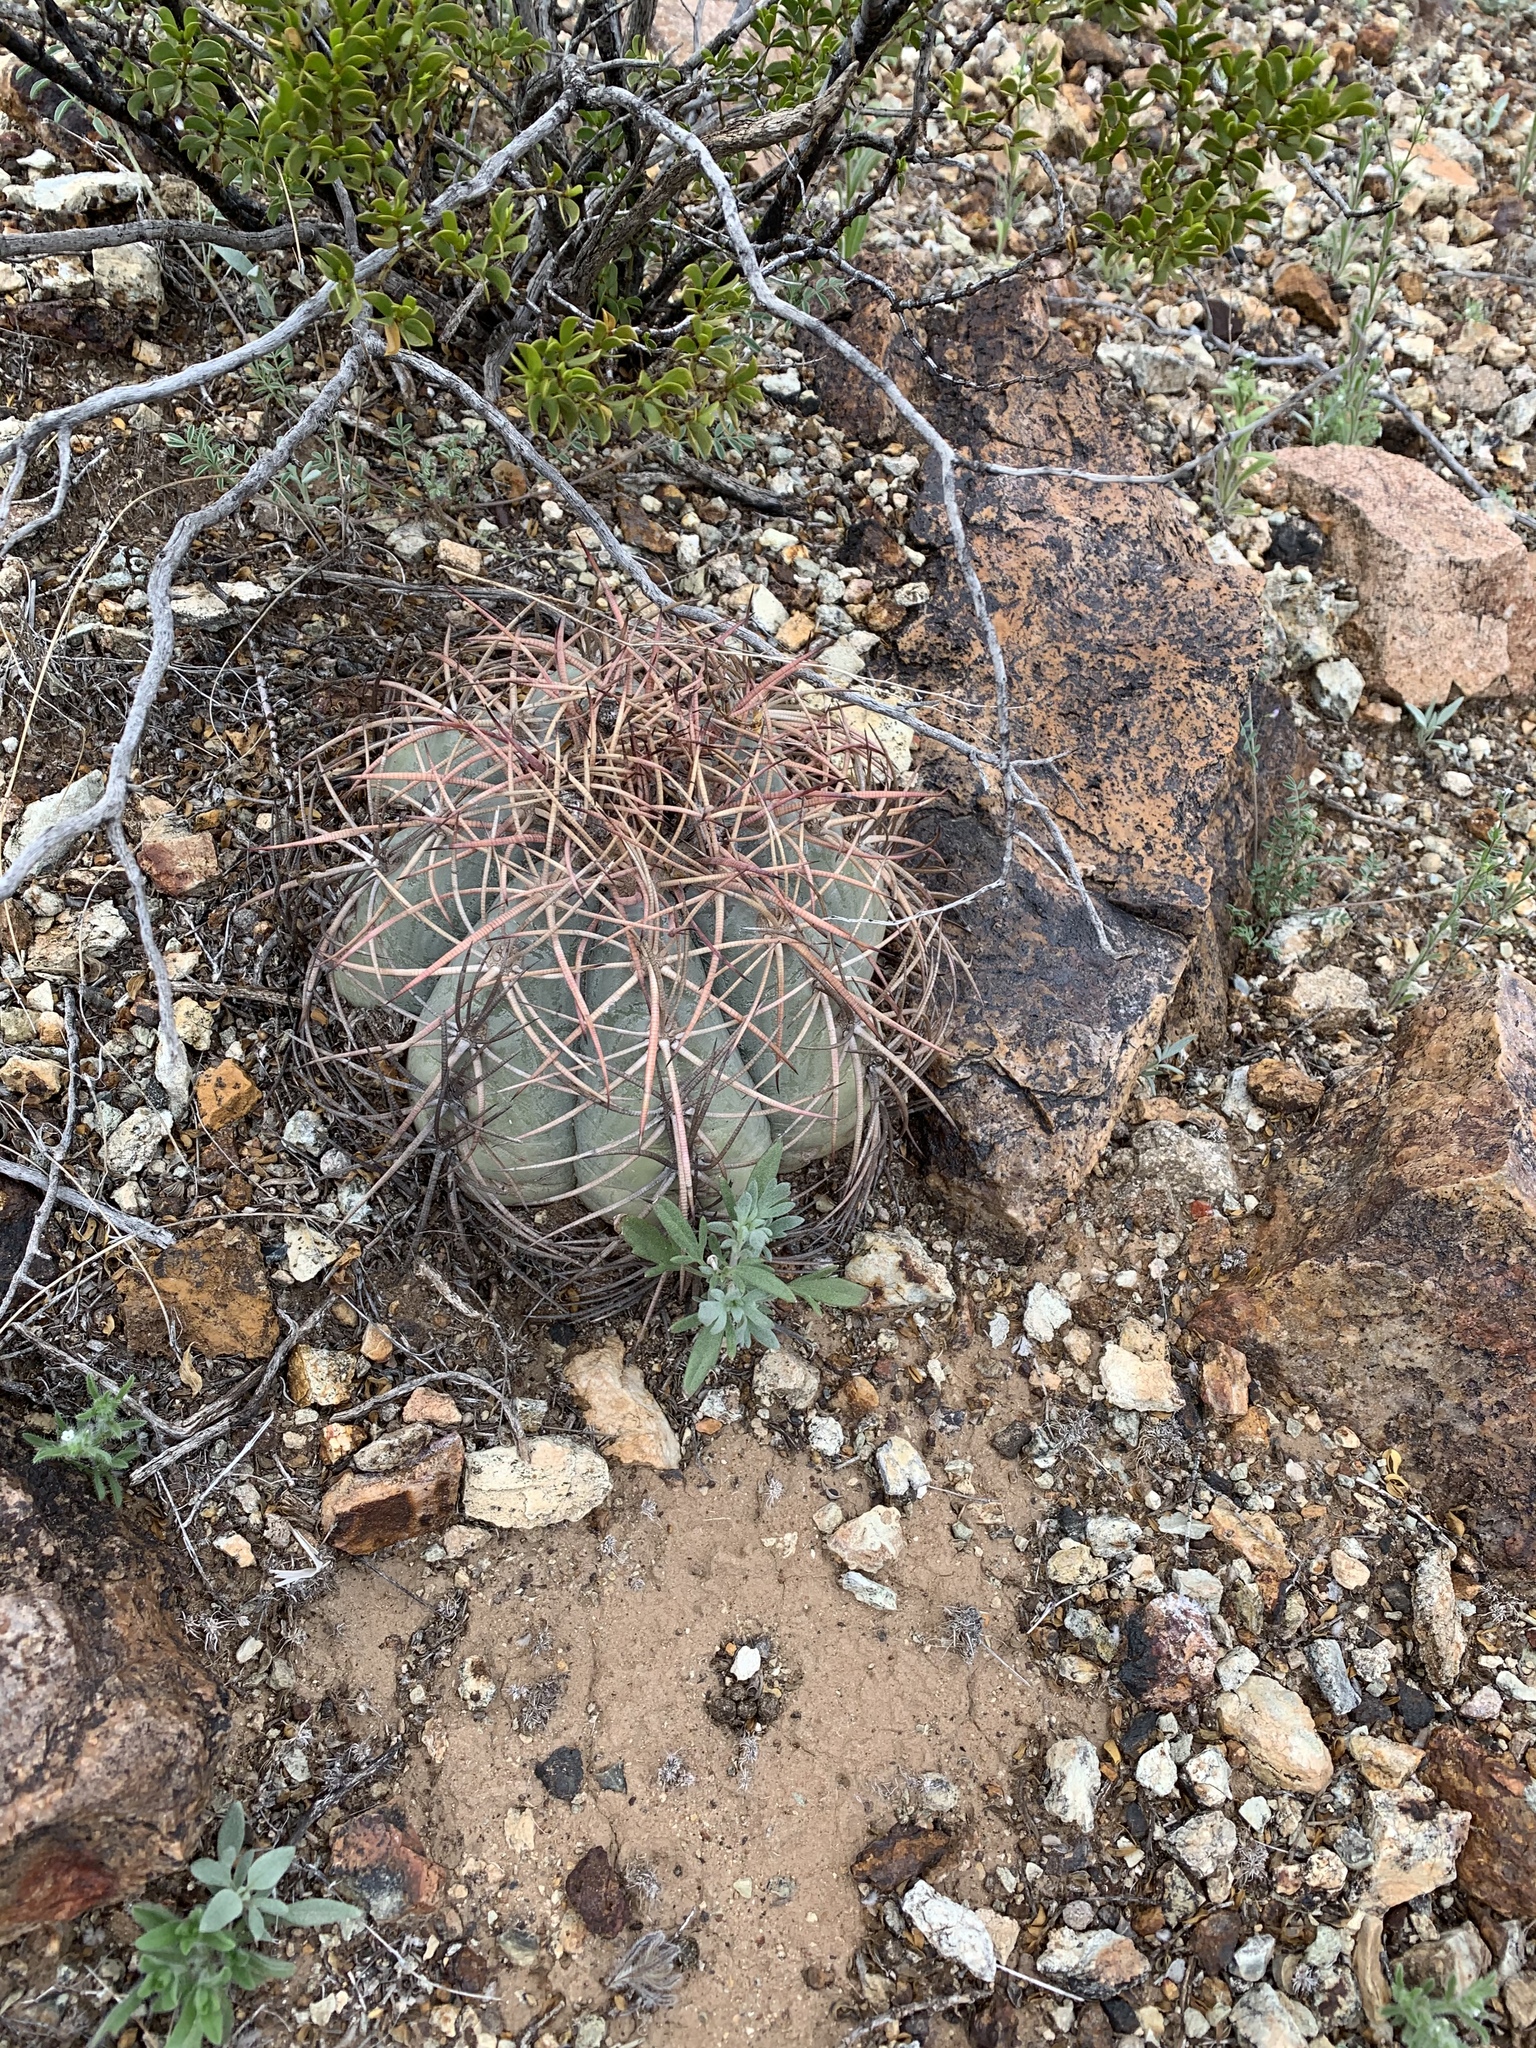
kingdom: Plantae
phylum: Tracheophyta
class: Magnoliopsida
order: Caryophyllales
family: Cactaceae
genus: Echinocactus
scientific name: Echinocactus horizonthalonius
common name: Devilshead
